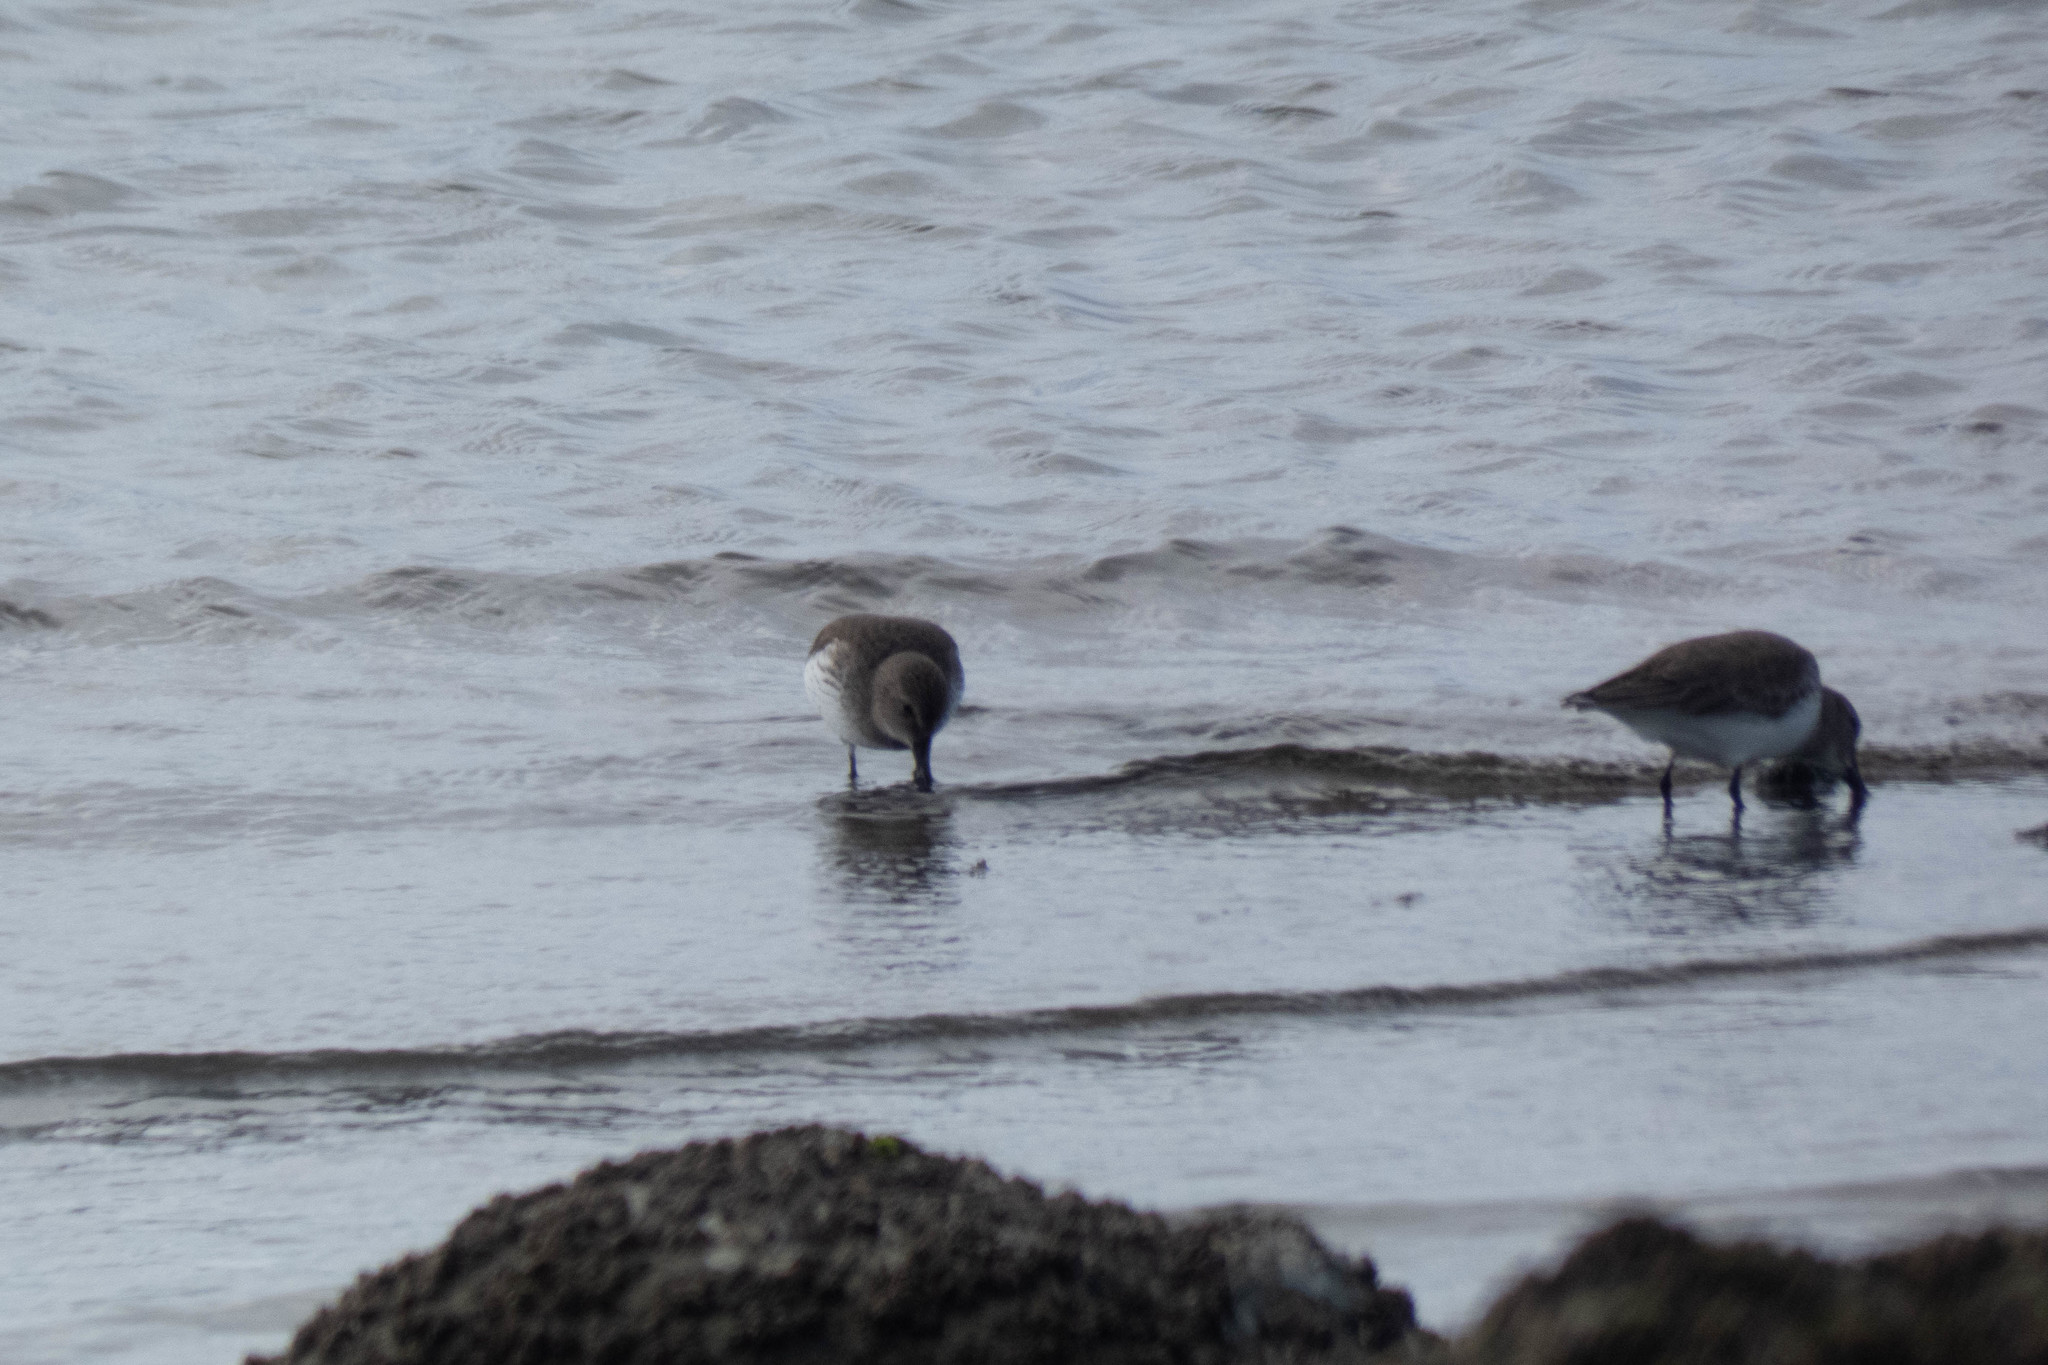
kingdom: Animalia
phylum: Chordata
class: Aves
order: Charadriiformes
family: Scolopacidae
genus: Calidris
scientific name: Calidris alpina
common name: Dunlin
